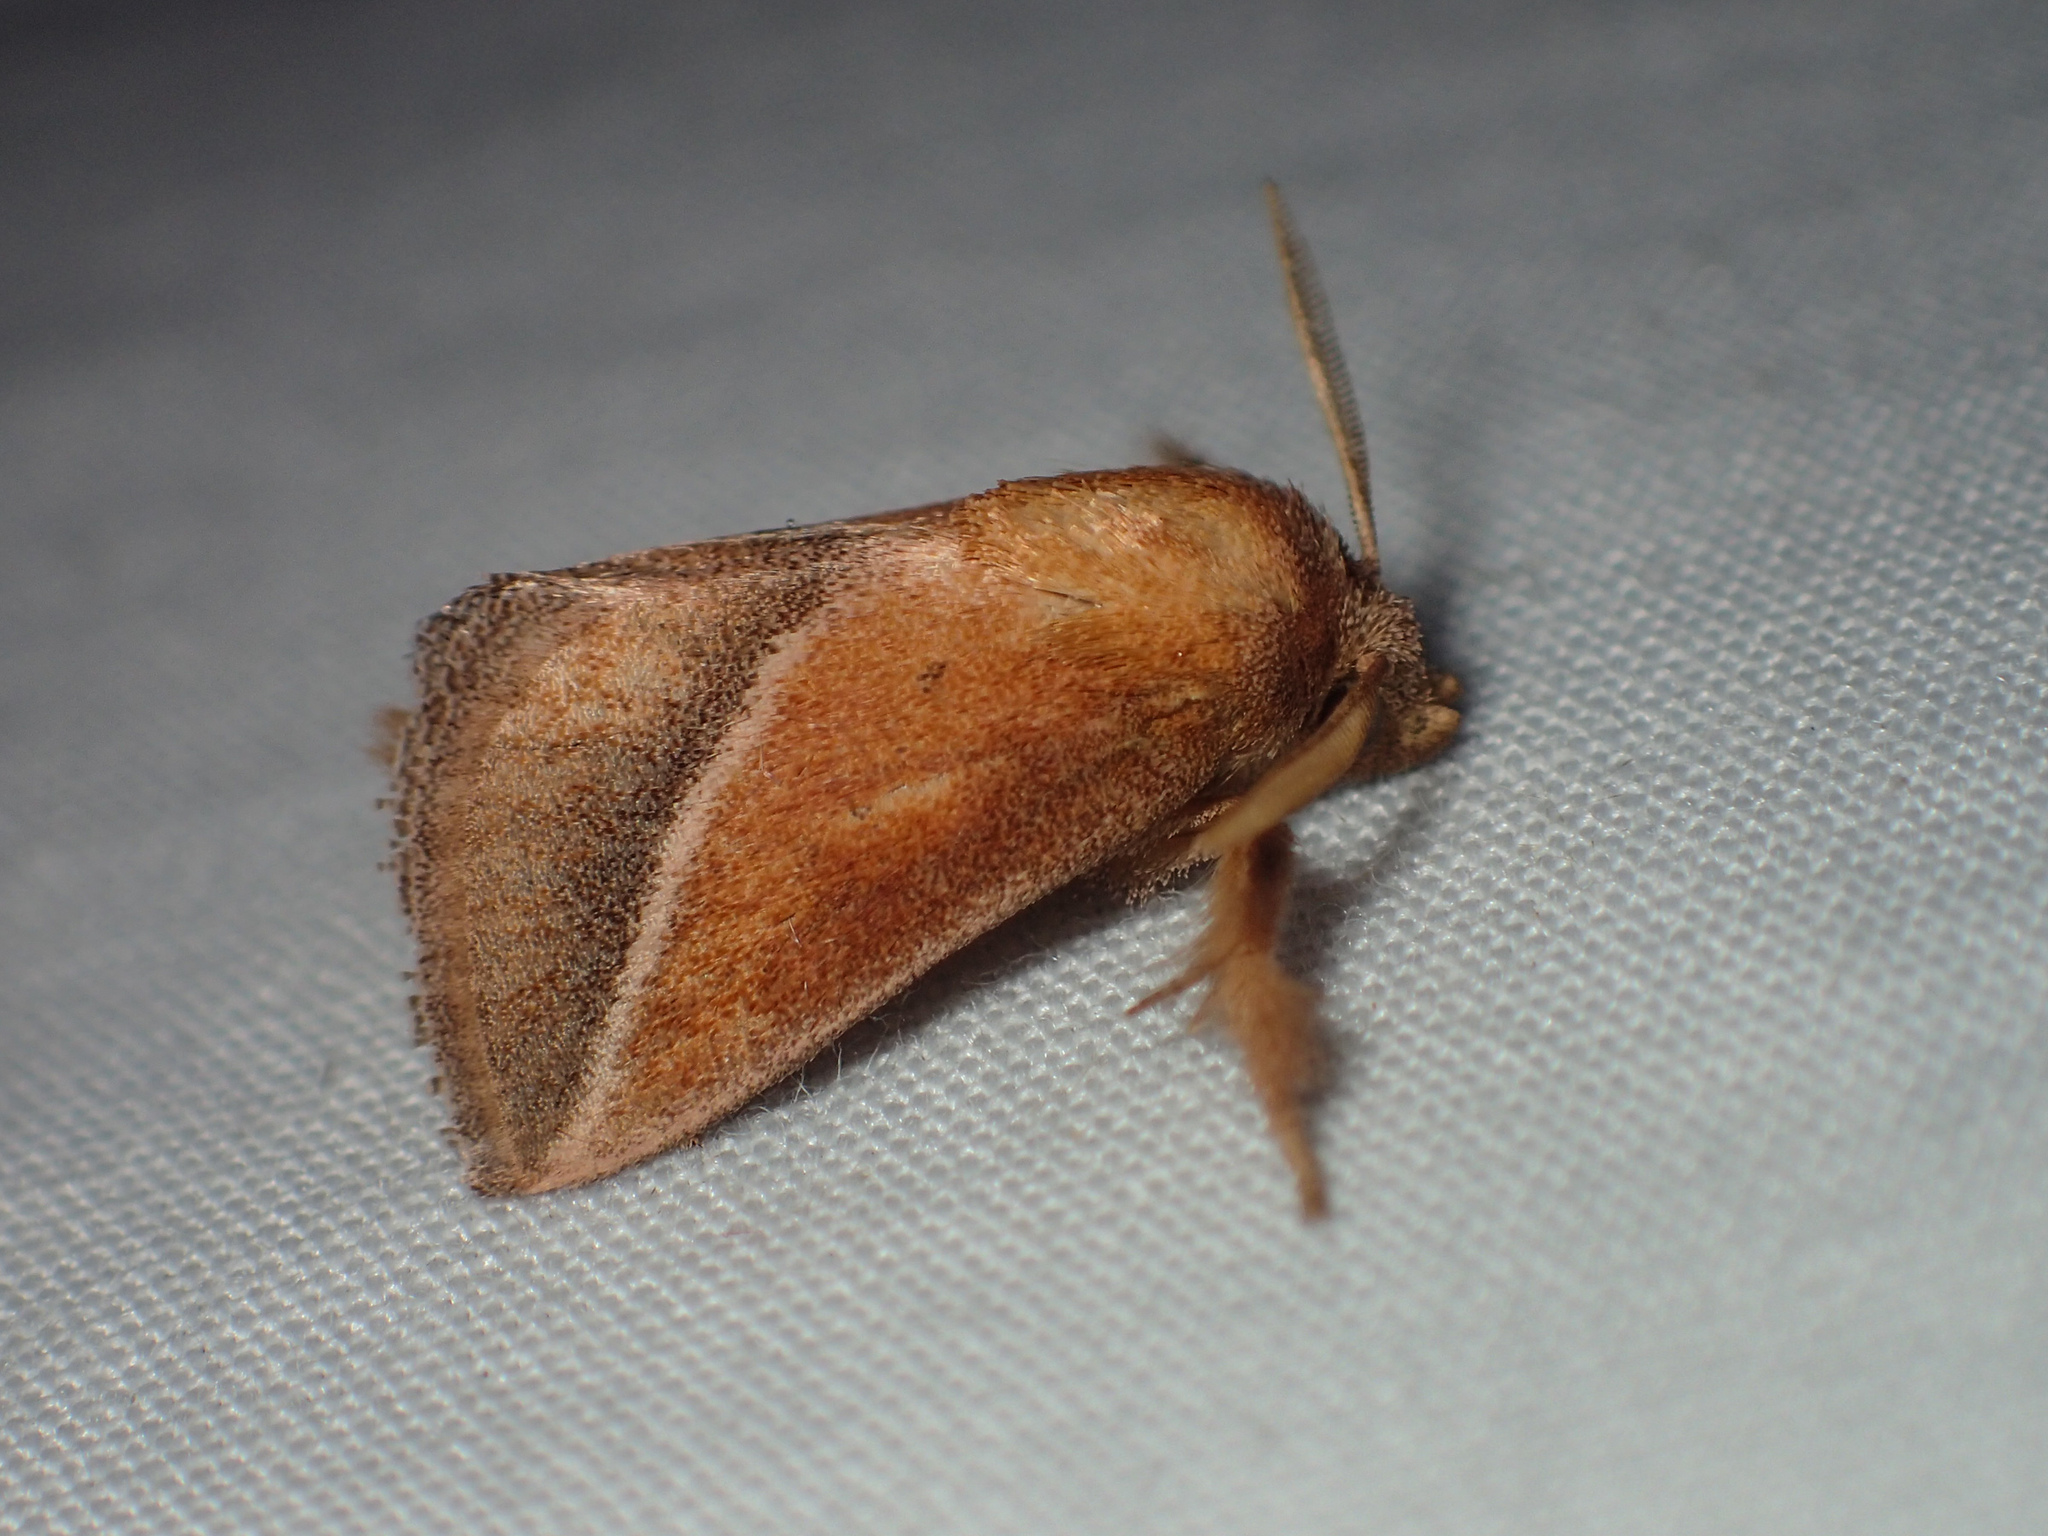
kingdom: Animalia
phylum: Arthropoda
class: Insecta
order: Lepidoptera
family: Limacodidae
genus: Oxyplax
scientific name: Oxyplax pallivitta
